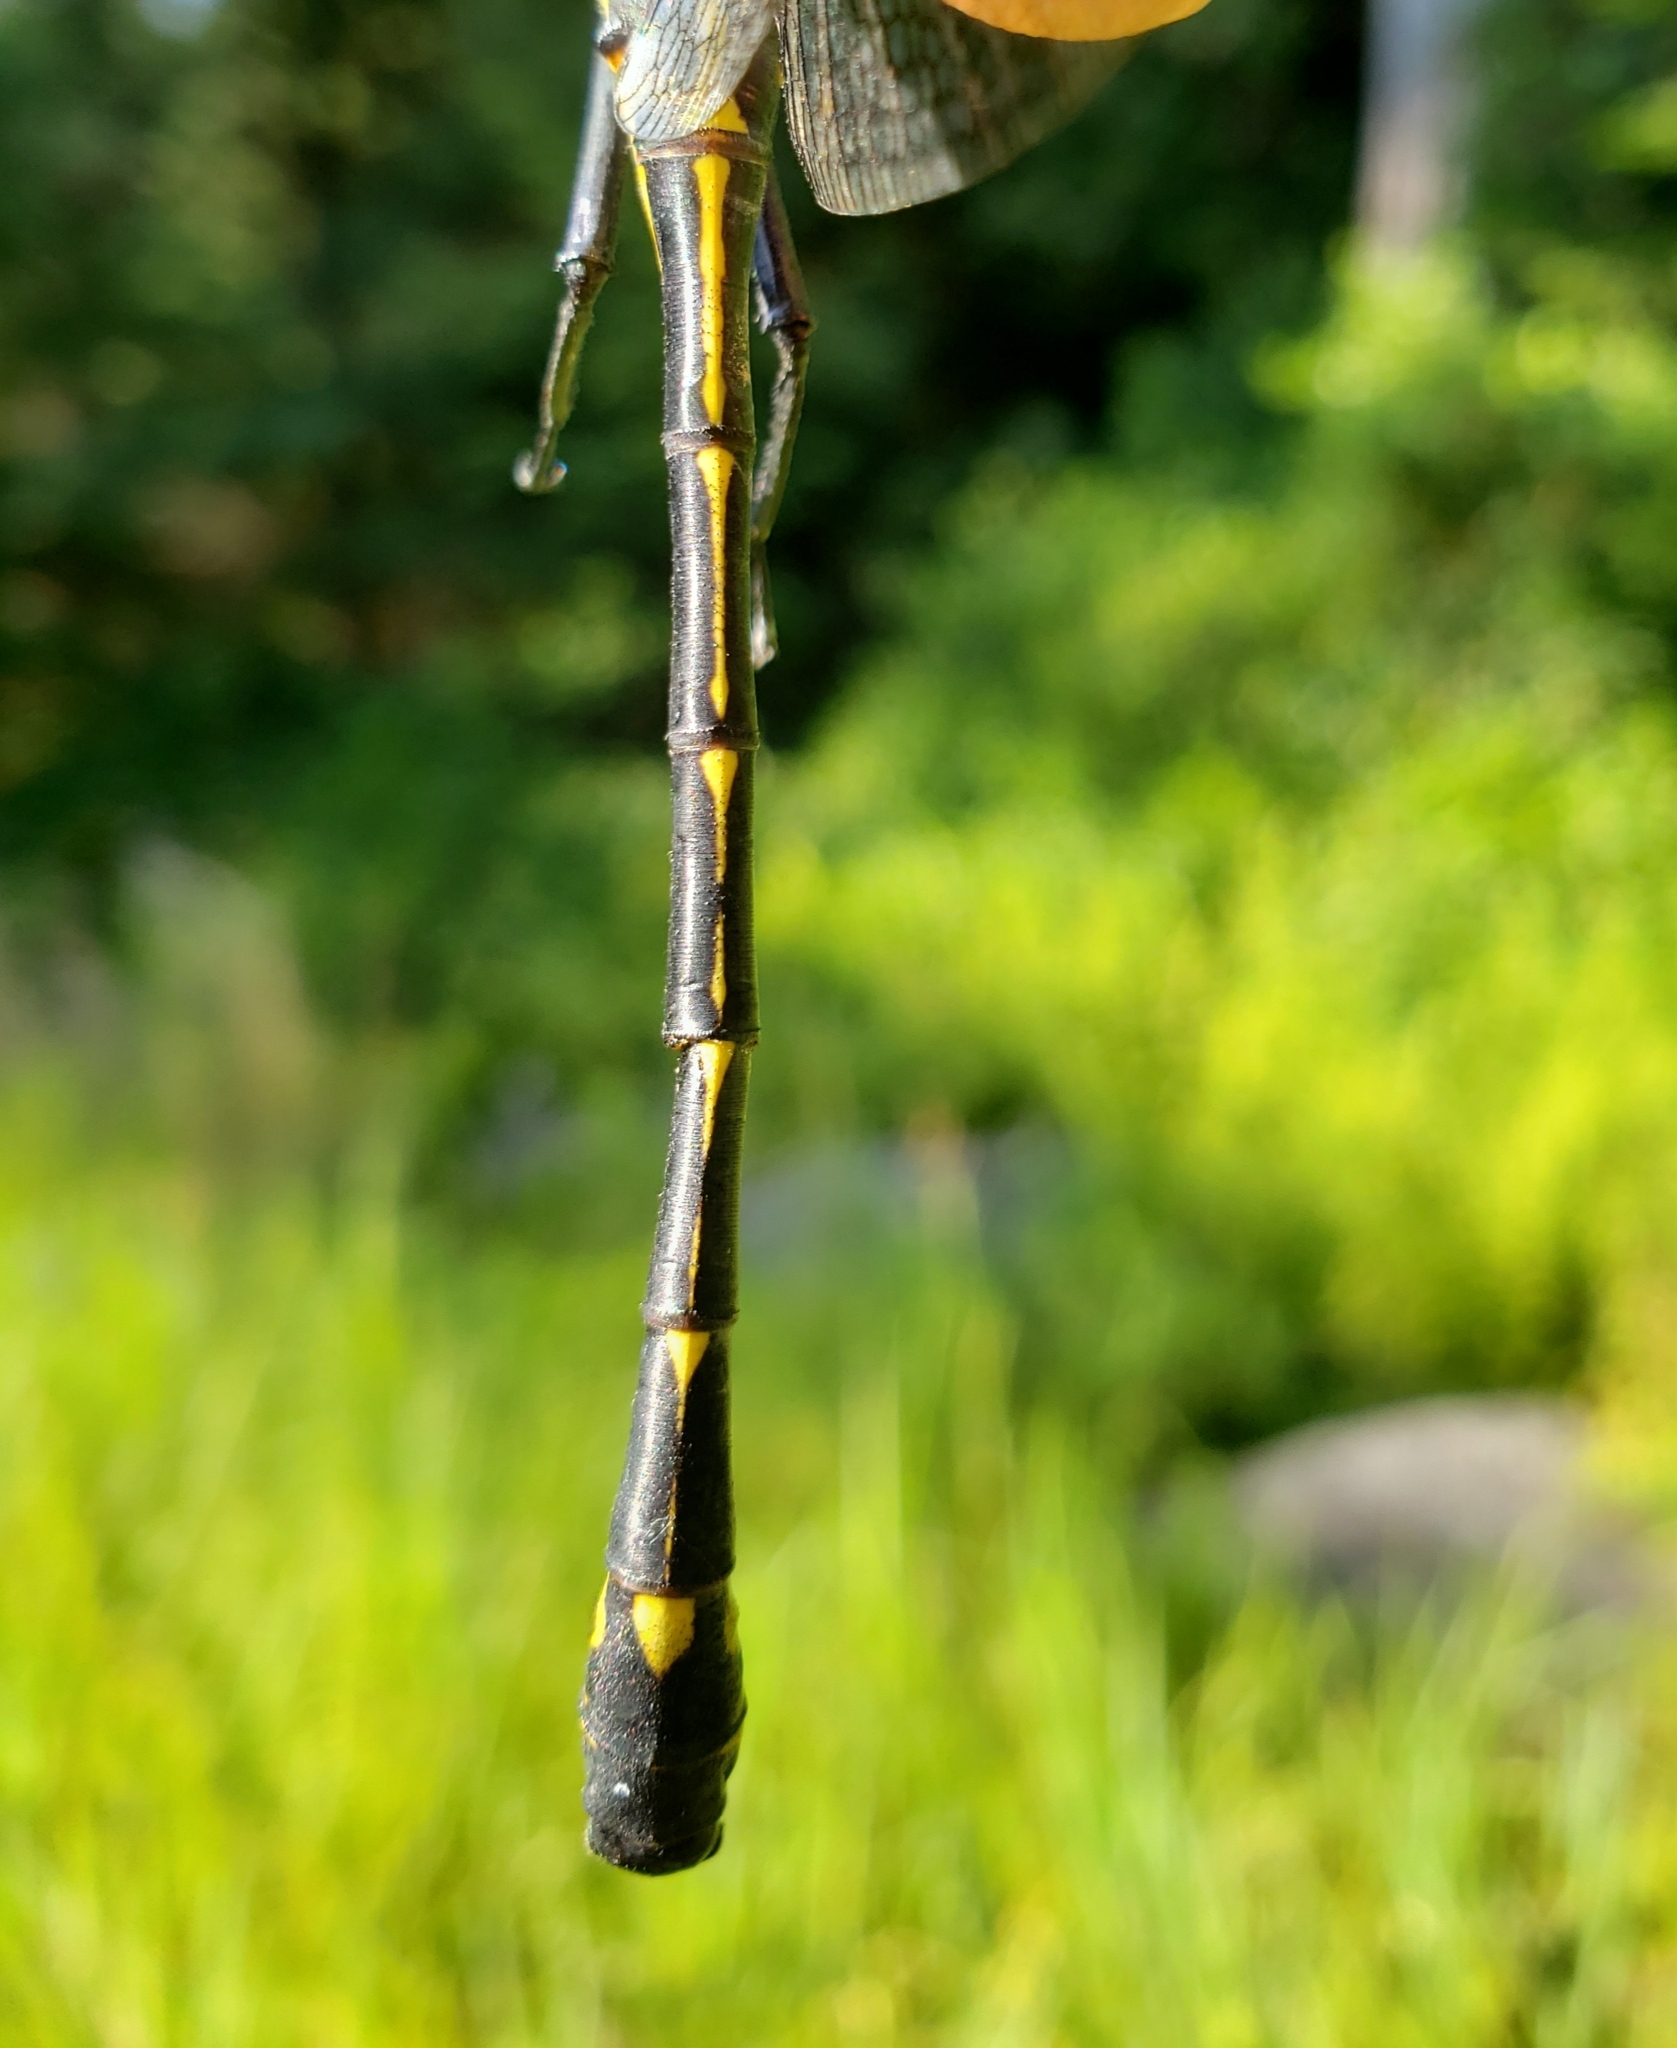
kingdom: Animalia
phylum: Arthropoda
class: Insecta
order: Odonata
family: Gomphidae
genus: Hagenius
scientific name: Hagenius brevistylus
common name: Dragonhunter
